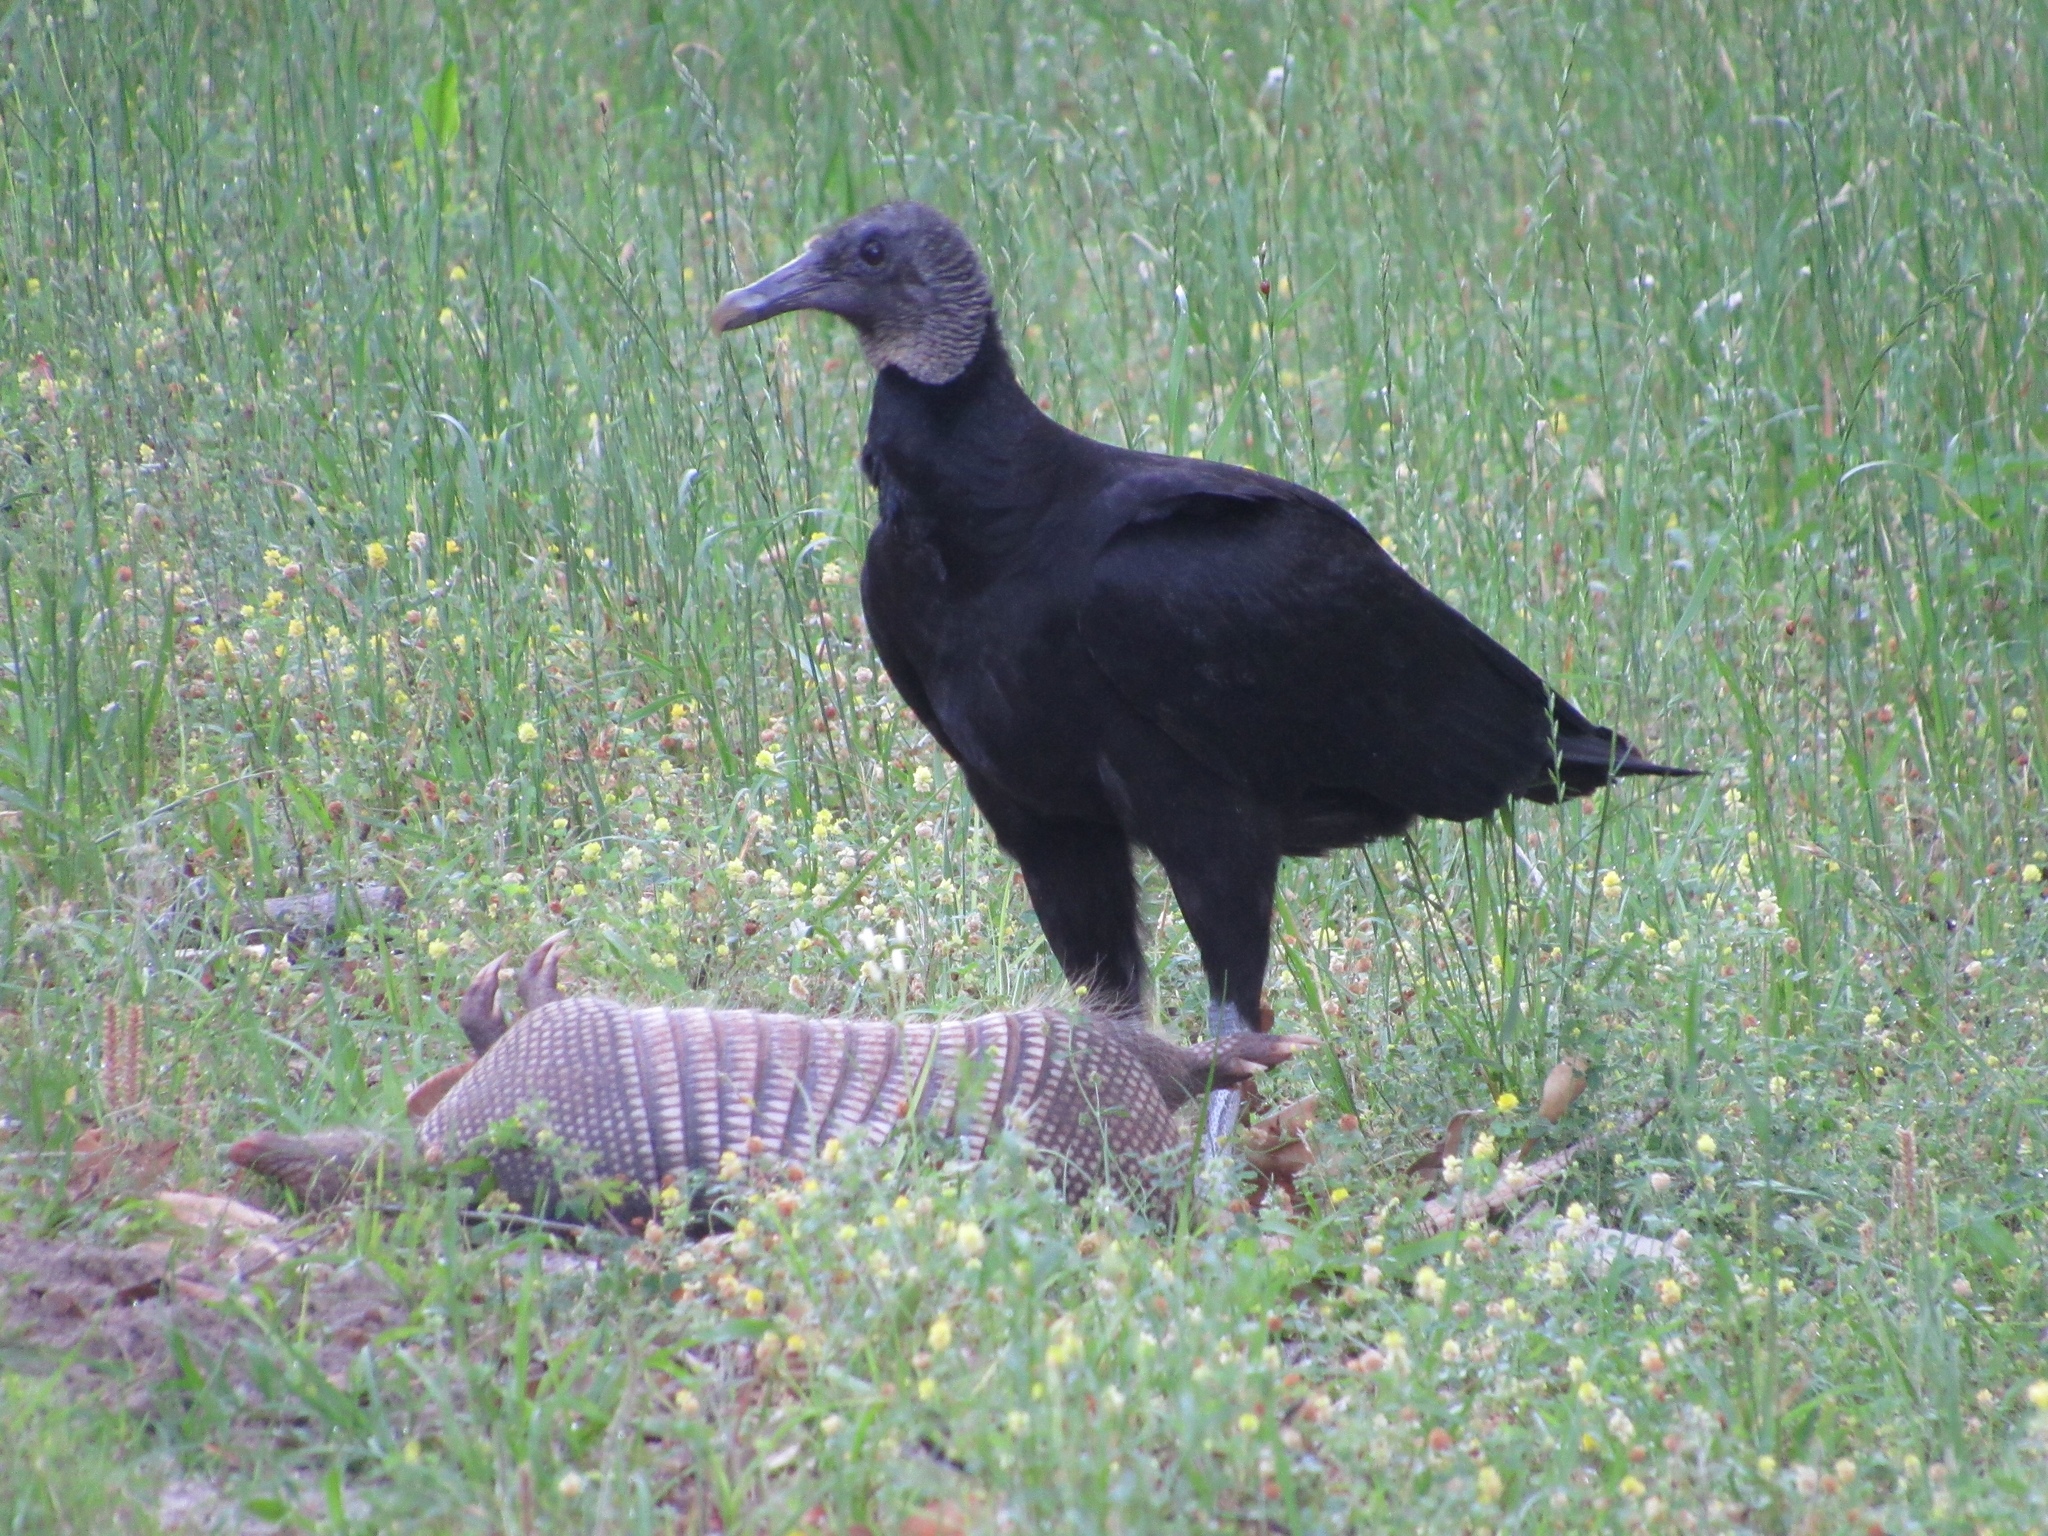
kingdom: Animalia
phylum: Chordata
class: Aves
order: Accipitriformes
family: Cathartidae
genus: Coragyps
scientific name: Coragyps atratus
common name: Black vulture
